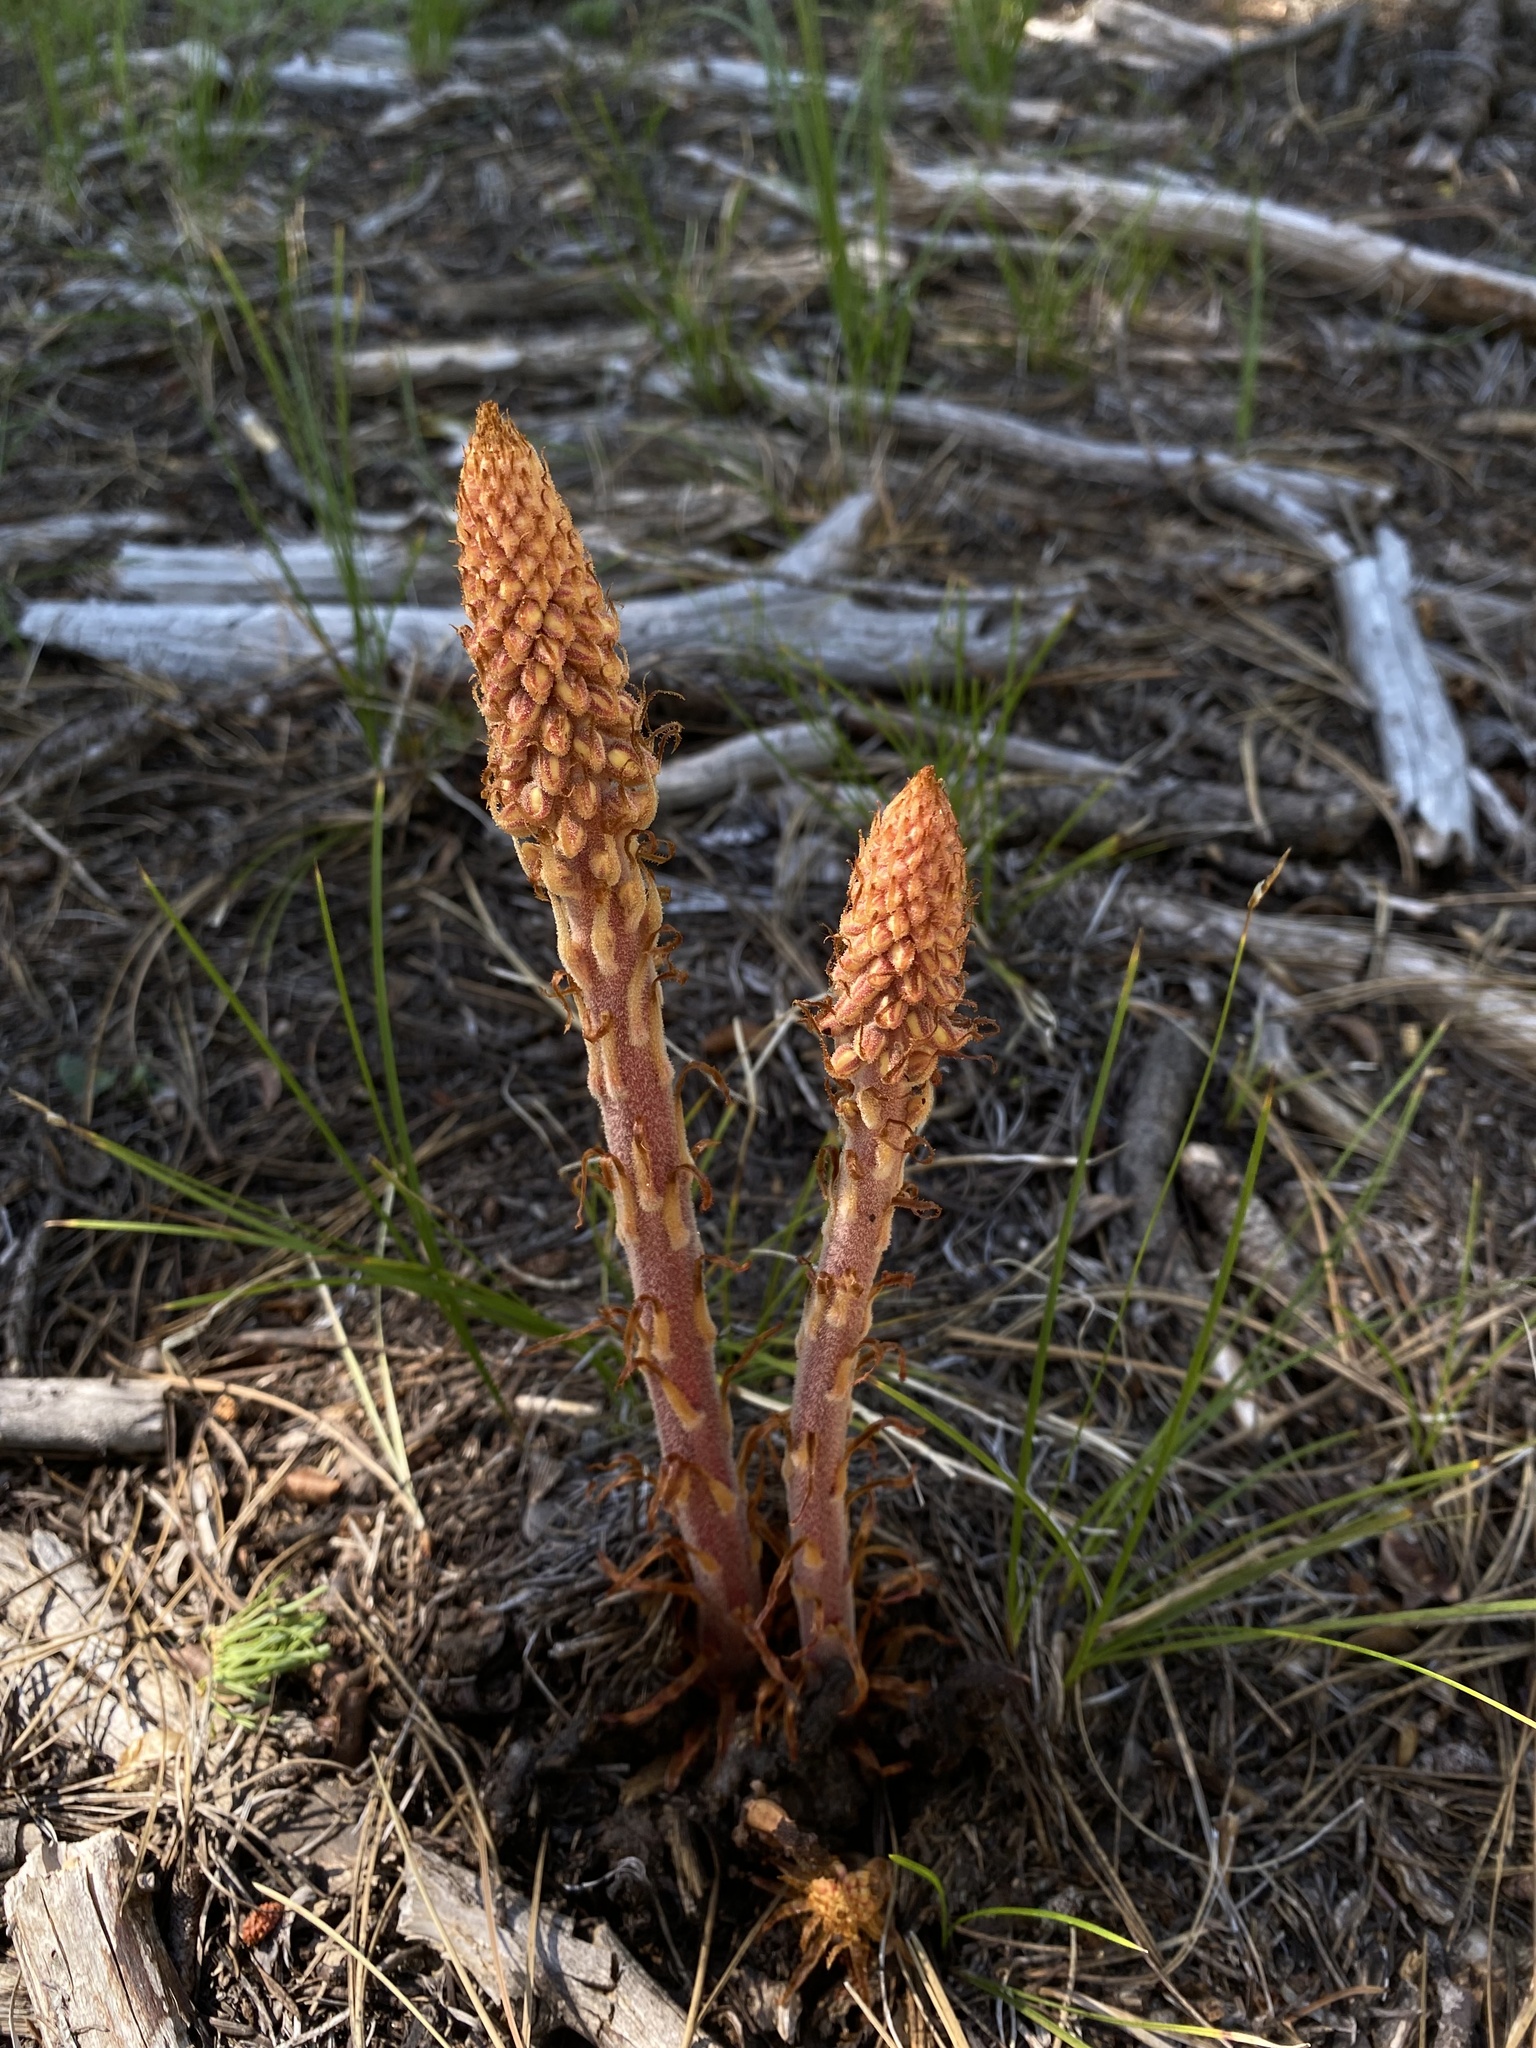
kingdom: Plantae
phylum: Tracheophyta
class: Magnoliopsida
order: Ericales
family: Ericaceae
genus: Pterospora
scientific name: Pterospora andromedea
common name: Giant bird's-nest
